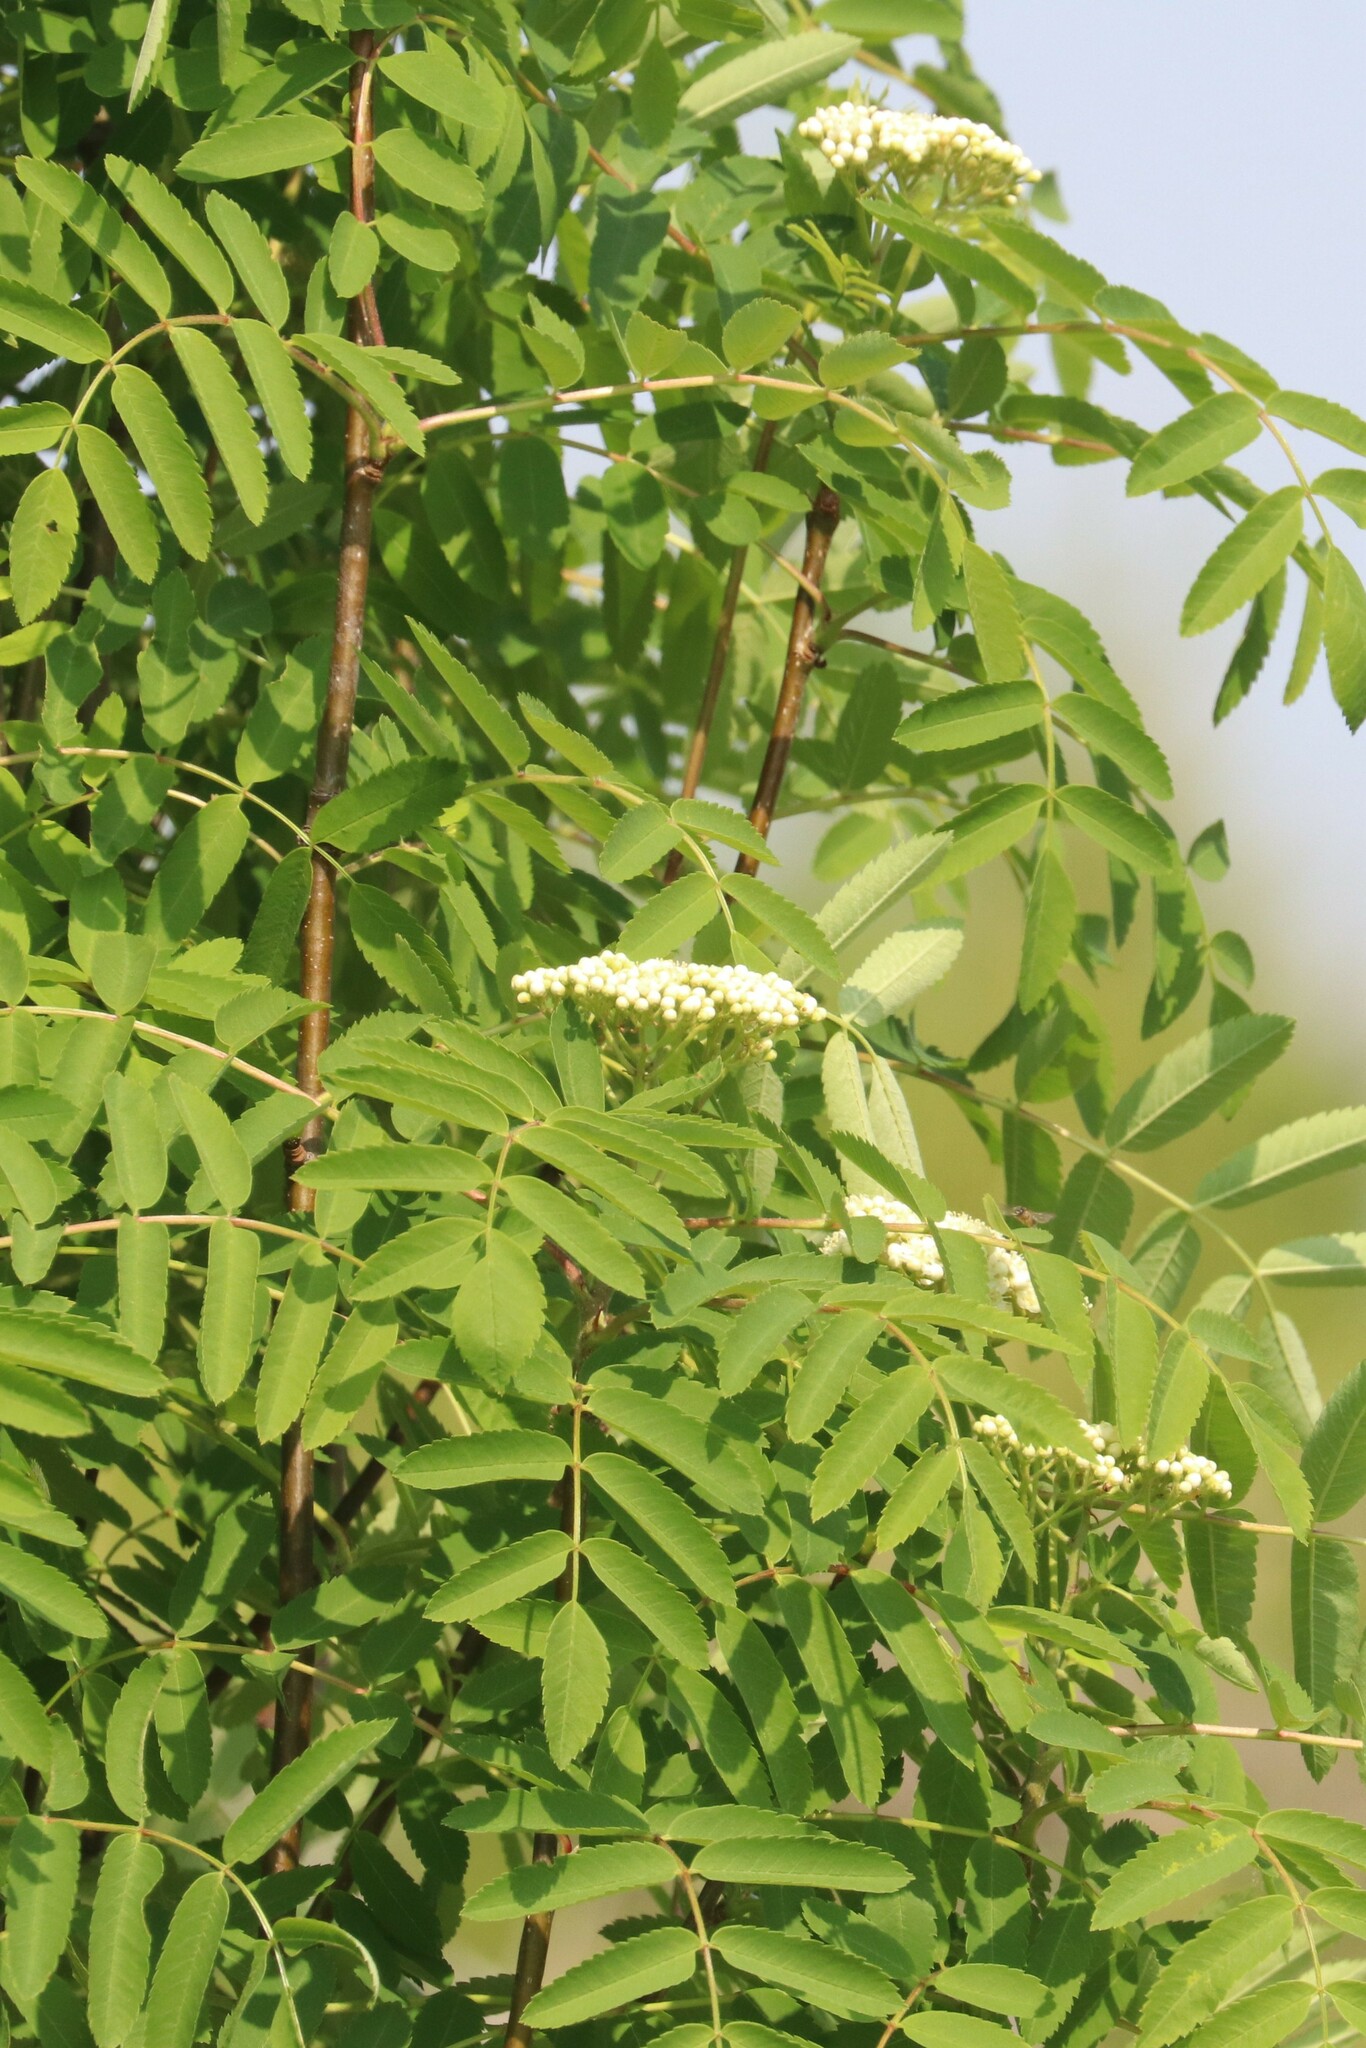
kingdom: Plantae
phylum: Tracheophyta
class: Magnoliopsida
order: Rosales
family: Rosaceae
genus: Sorbus
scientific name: Sorbus aucuparia
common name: Rowan
